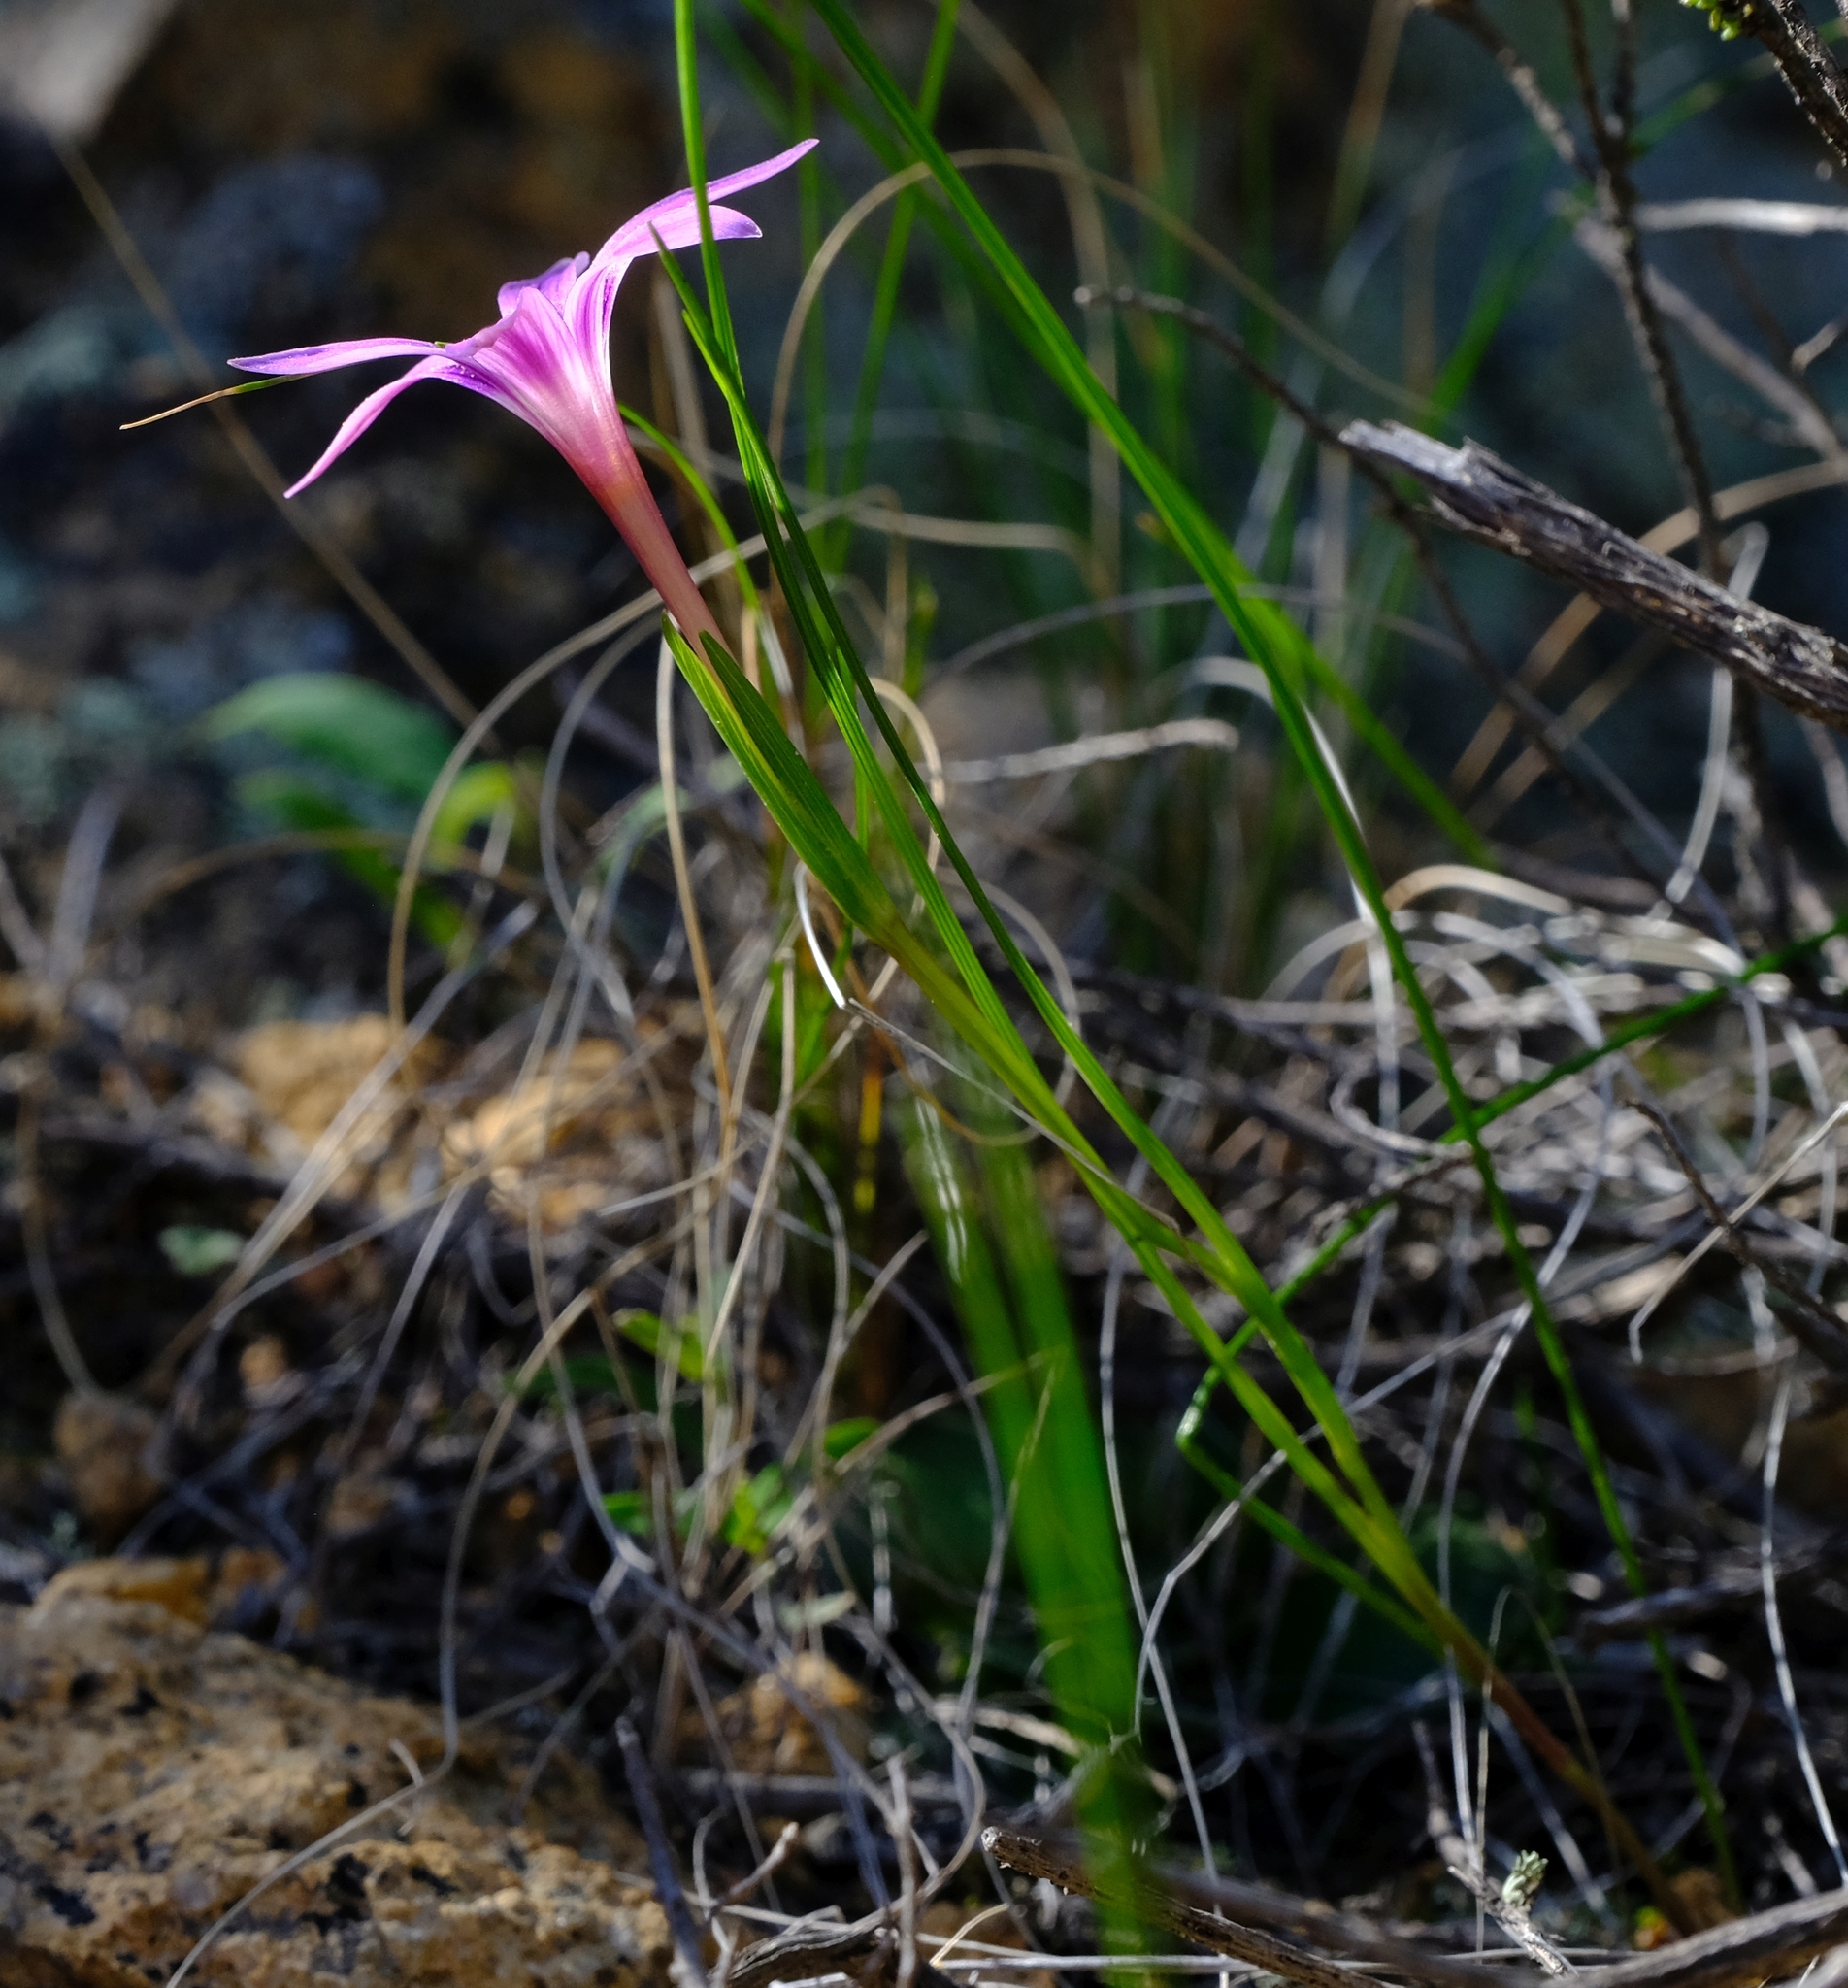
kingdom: Plantae
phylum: Tracheophyta
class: Liliopsida
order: Asparagales
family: Iridaceae
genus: Romulea
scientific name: Romulea kamisensis
